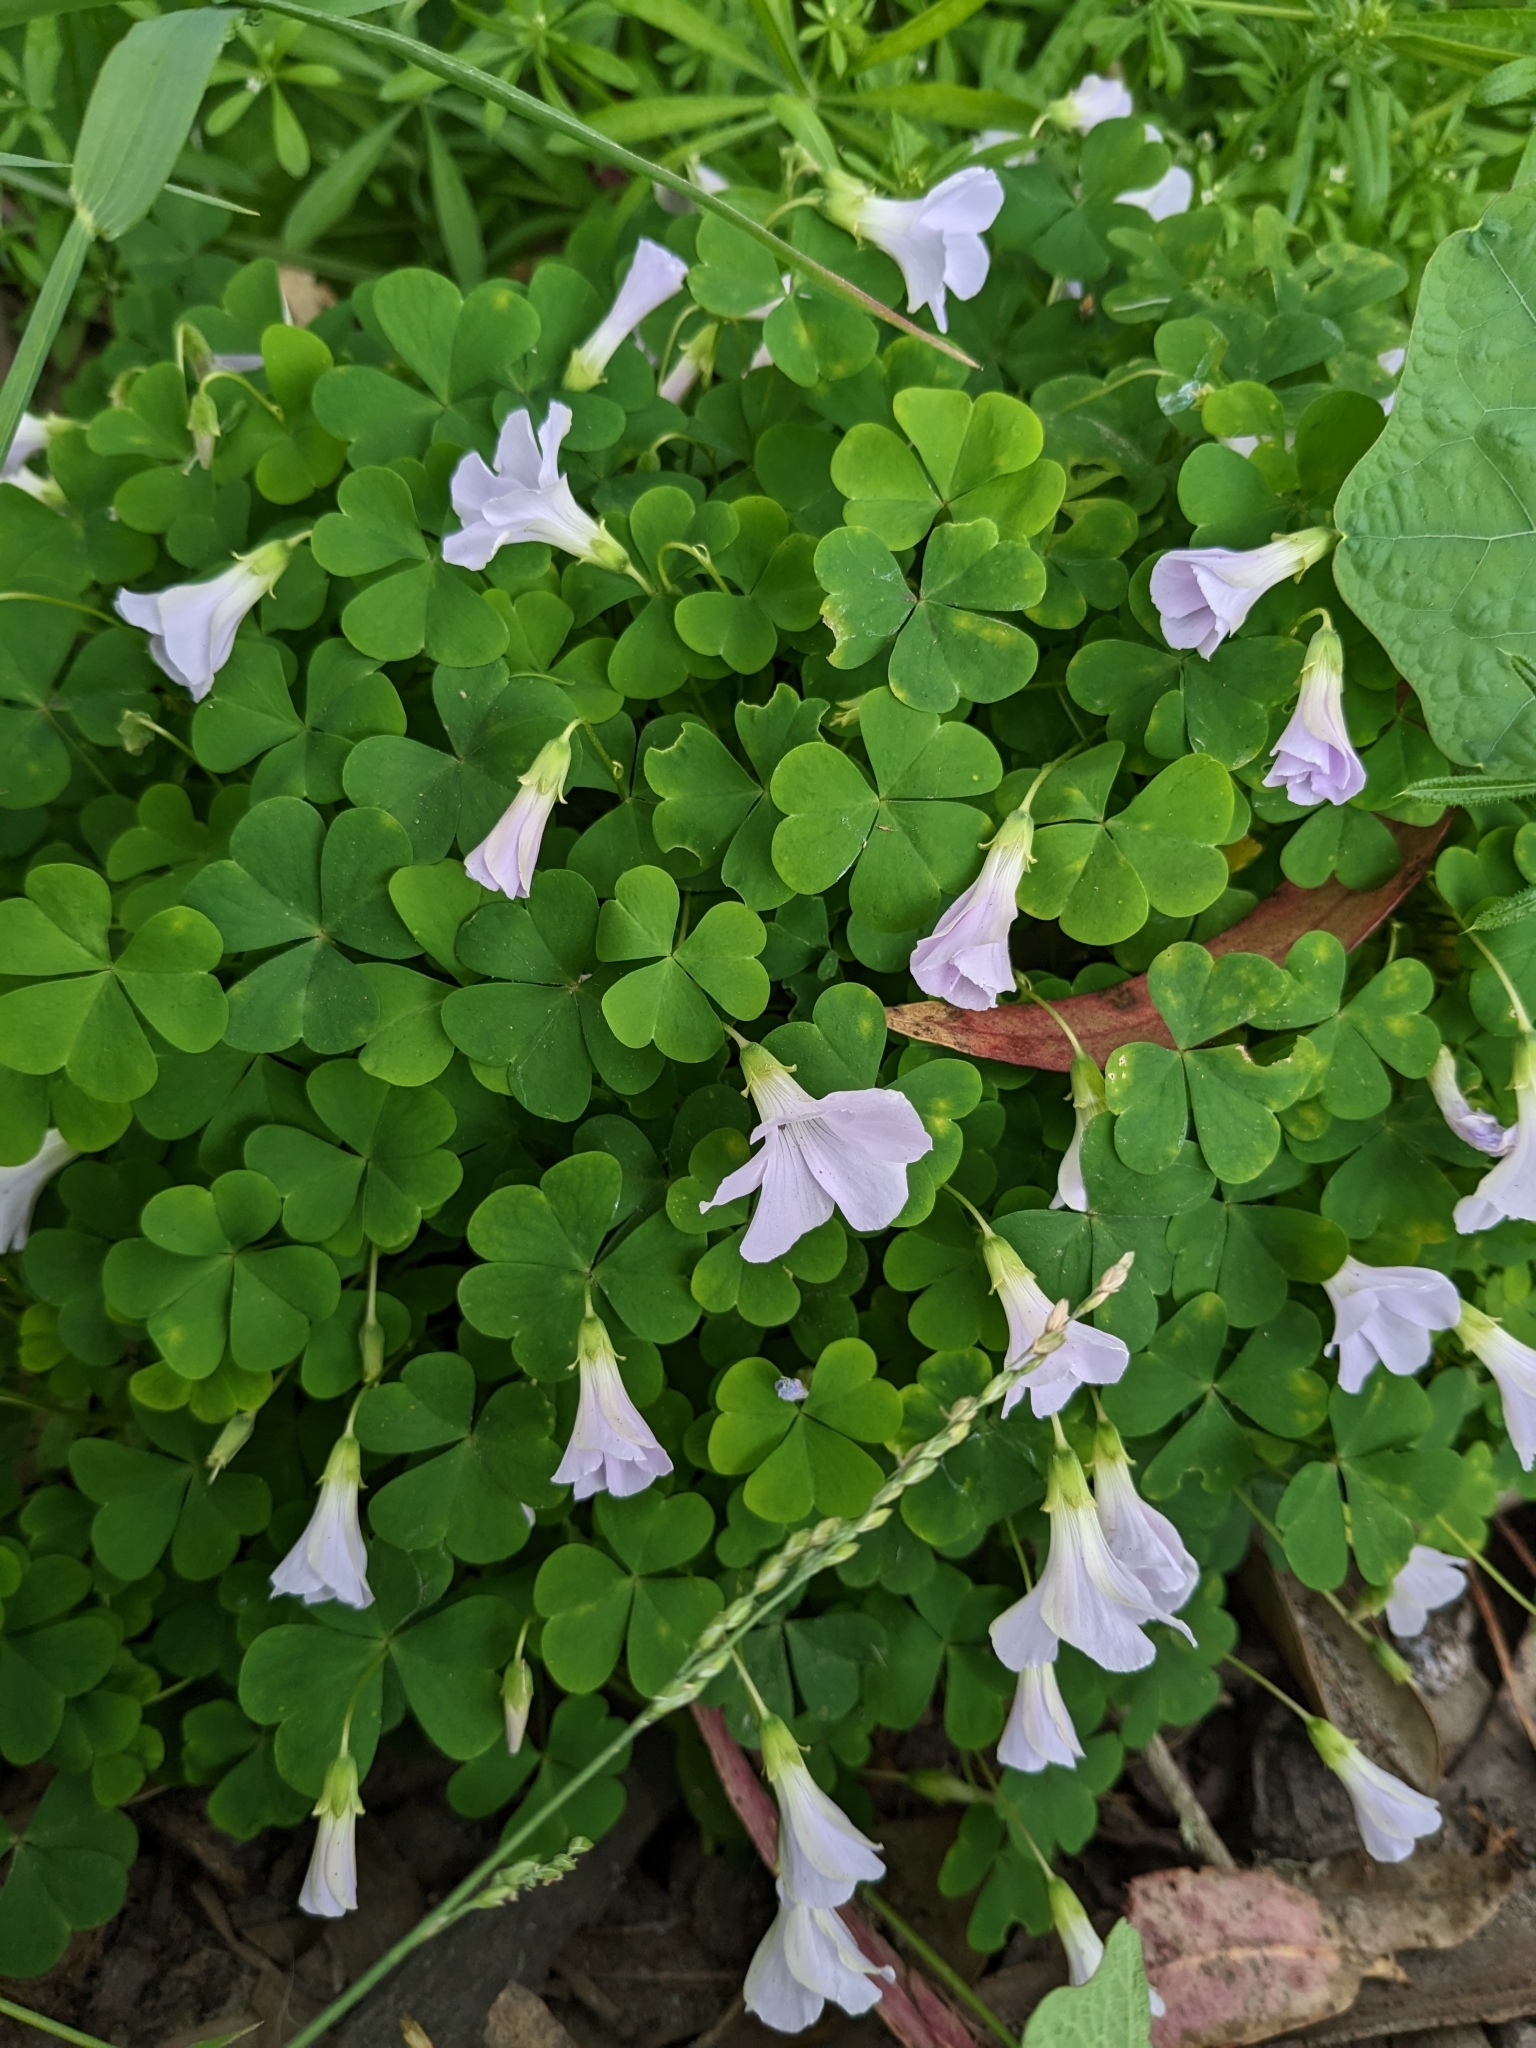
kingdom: Plantae
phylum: Tracheophyta
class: Magnoliopsida
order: Oxalidales
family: Oxalidaceae
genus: Oxalis
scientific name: Oxalis incarnata
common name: Pale pink-sorrel
